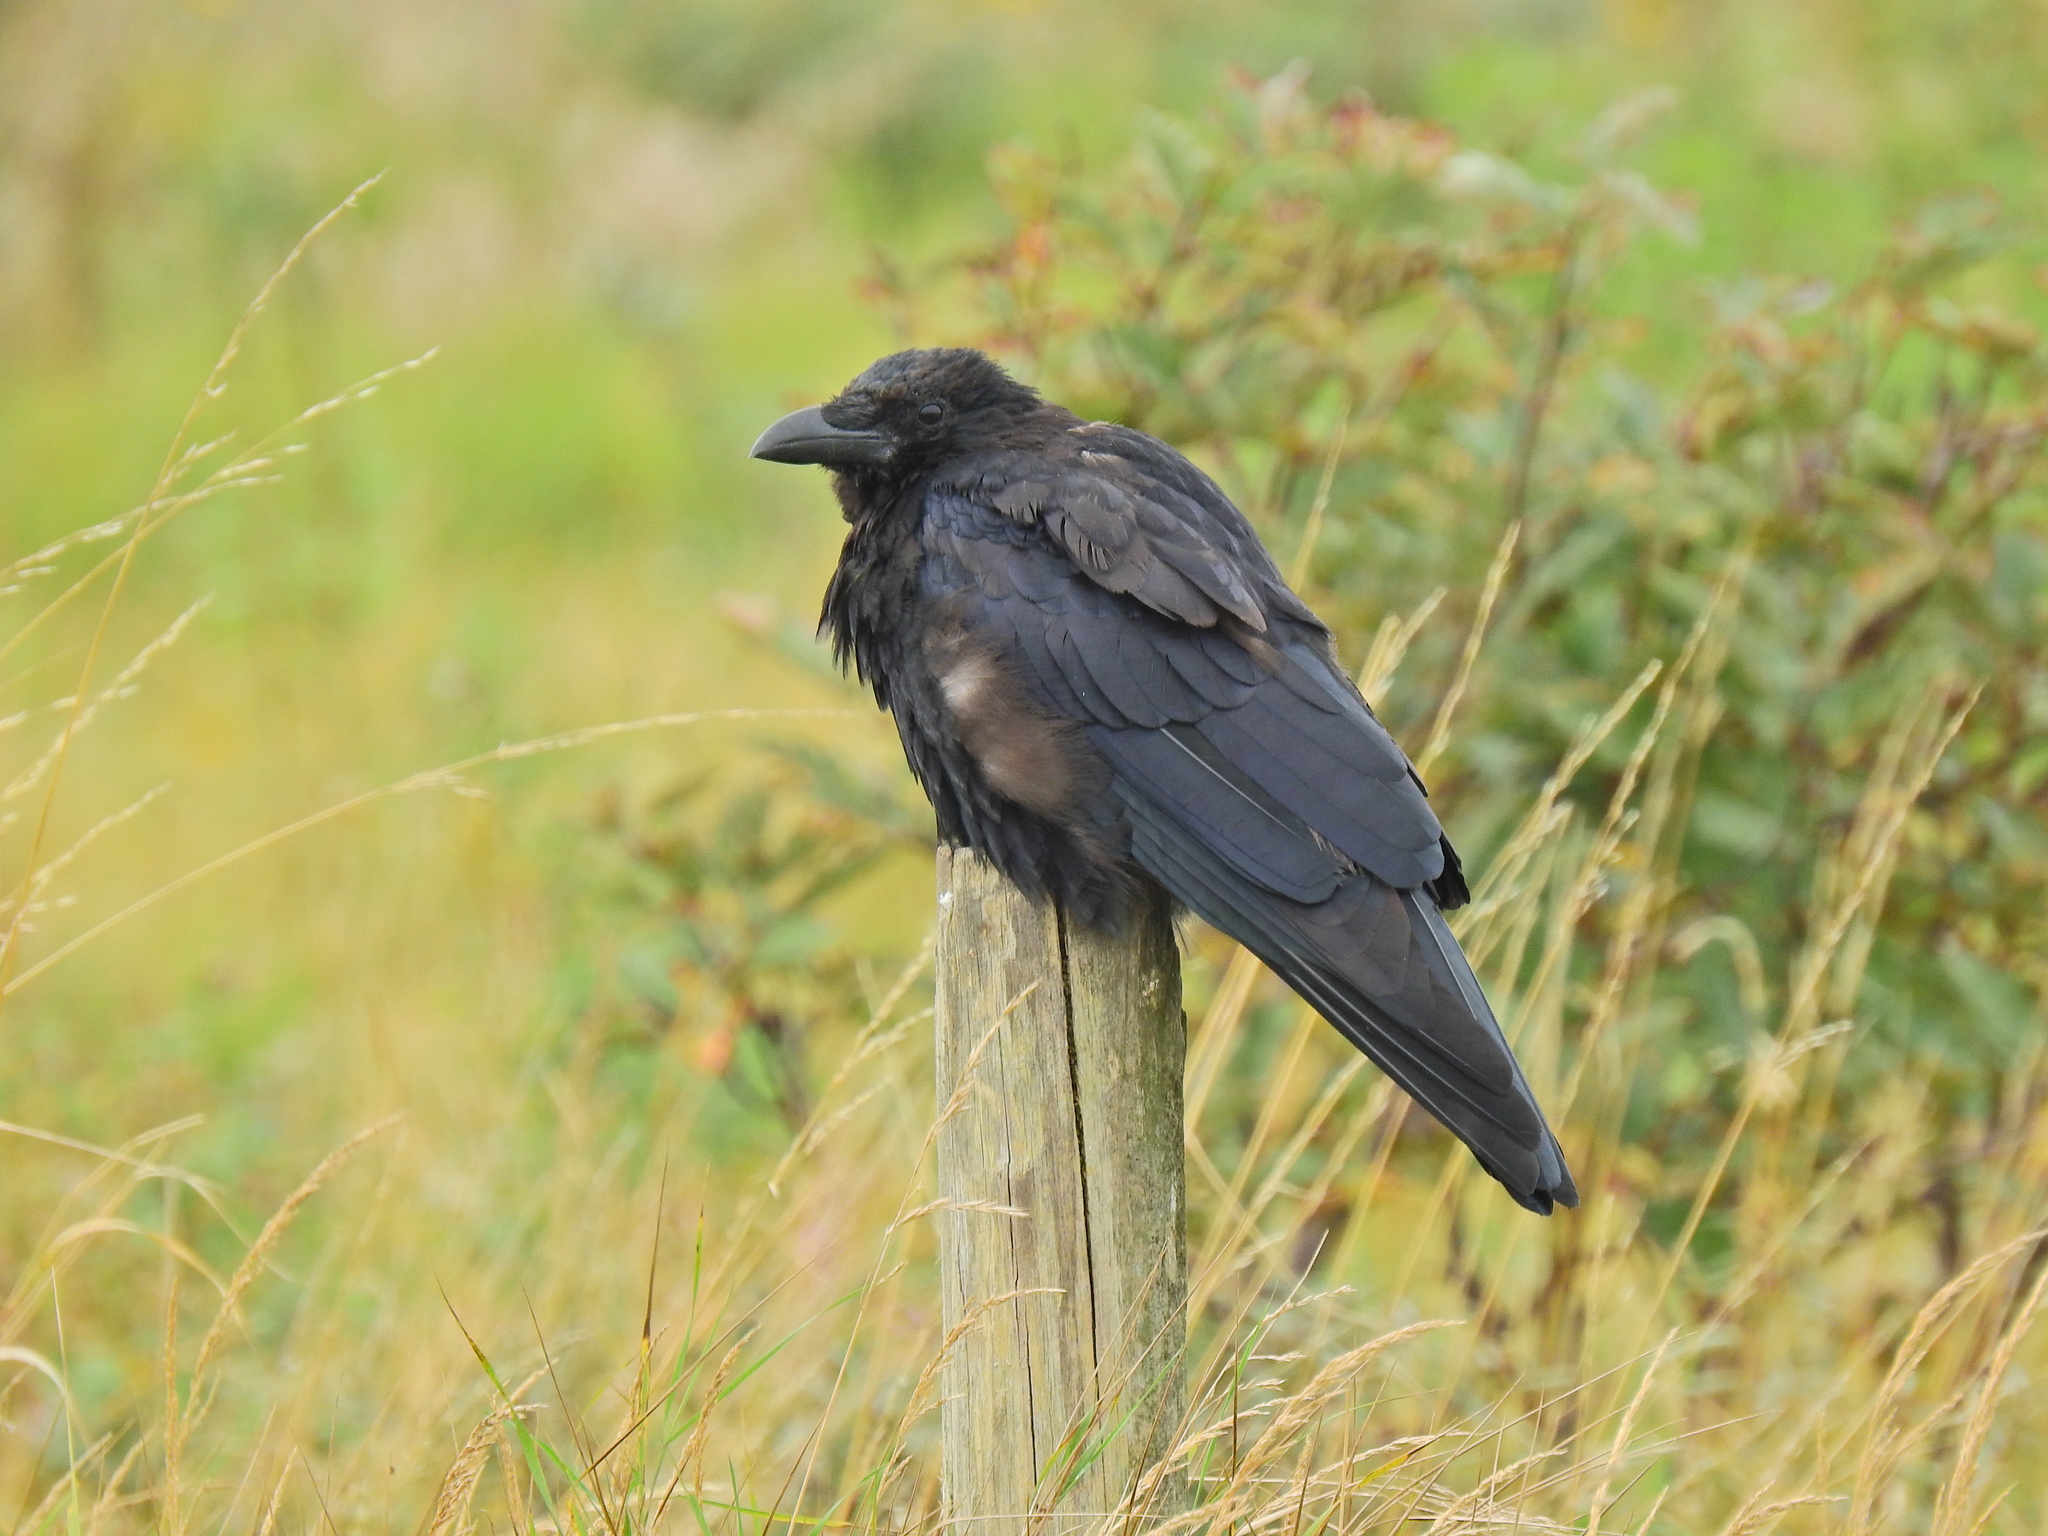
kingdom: Animalia
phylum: Chordata
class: Aves
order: Passeriformes
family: Corvidae
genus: Corvus
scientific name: Corvus corone
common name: Carrion crow
